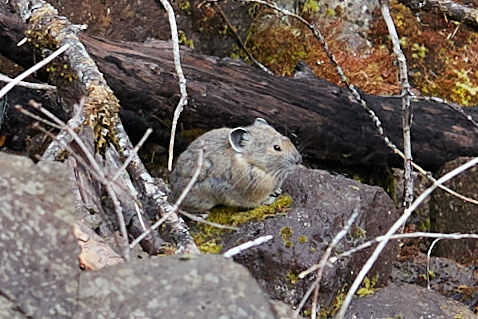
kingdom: Animalia
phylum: Chordata
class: Mammalia
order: Lagomorpha
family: Ochotonidae
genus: Ochotona
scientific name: Ochotona princeps
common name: American pika
